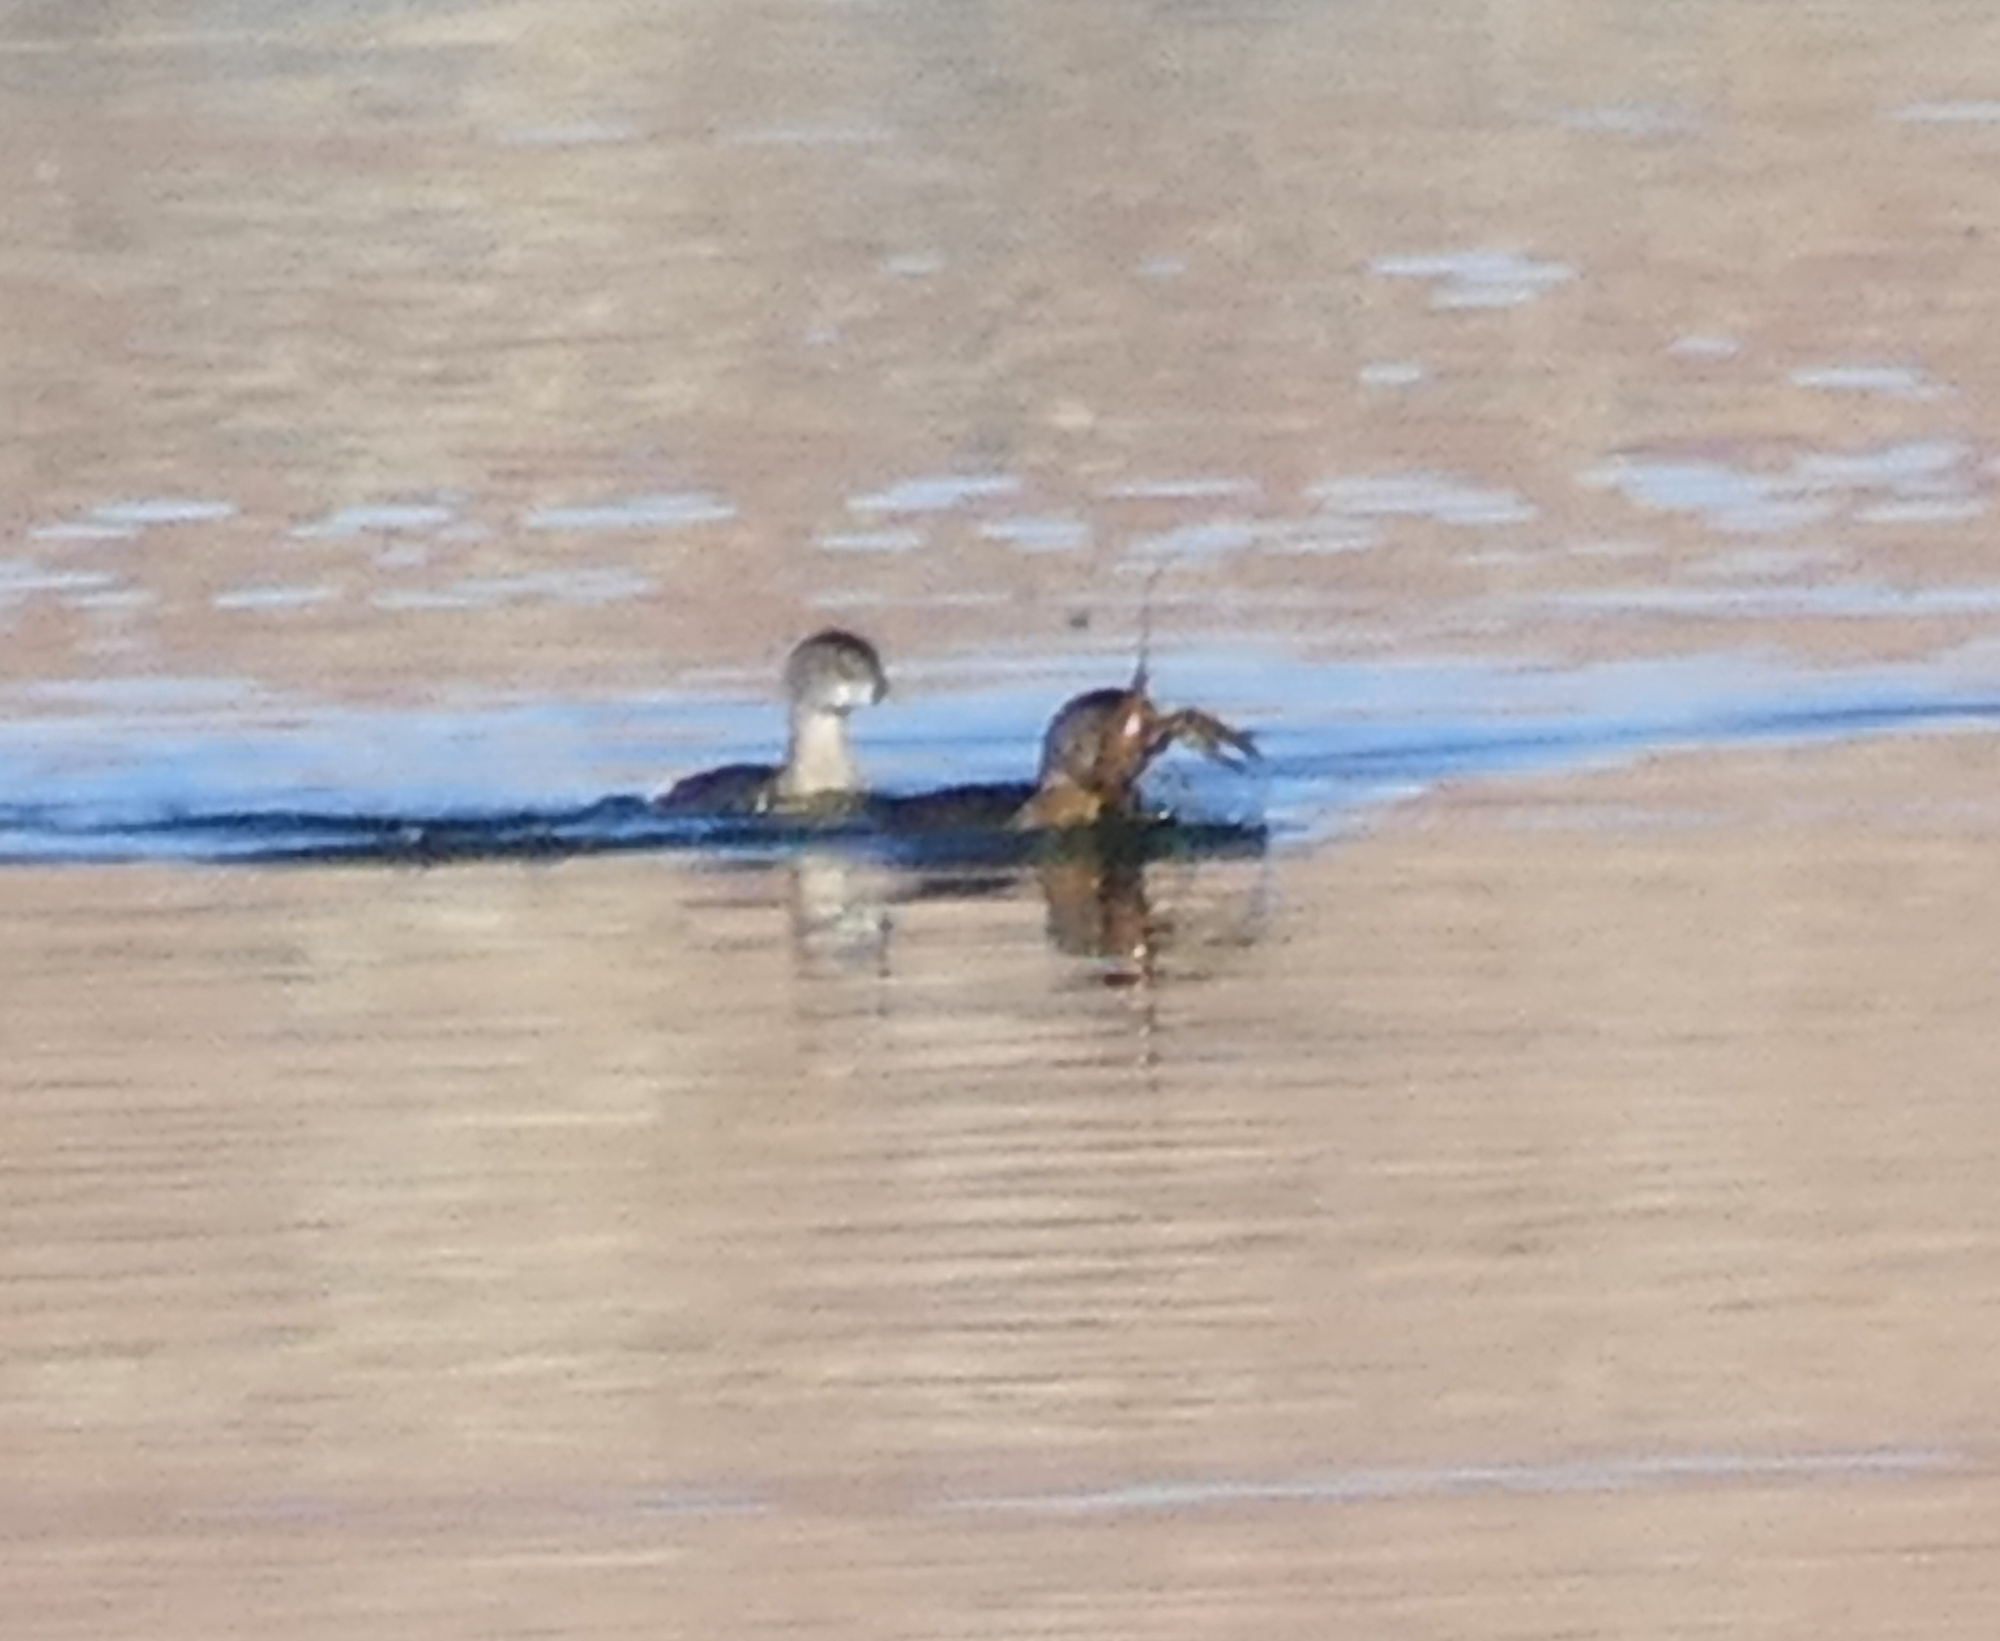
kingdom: Animalia
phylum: Chordata
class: Aves
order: Podicipediformes
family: Podicipedidae
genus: Podilymbus
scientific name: Podilymbus podiceps
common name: Pied-billed grebe
